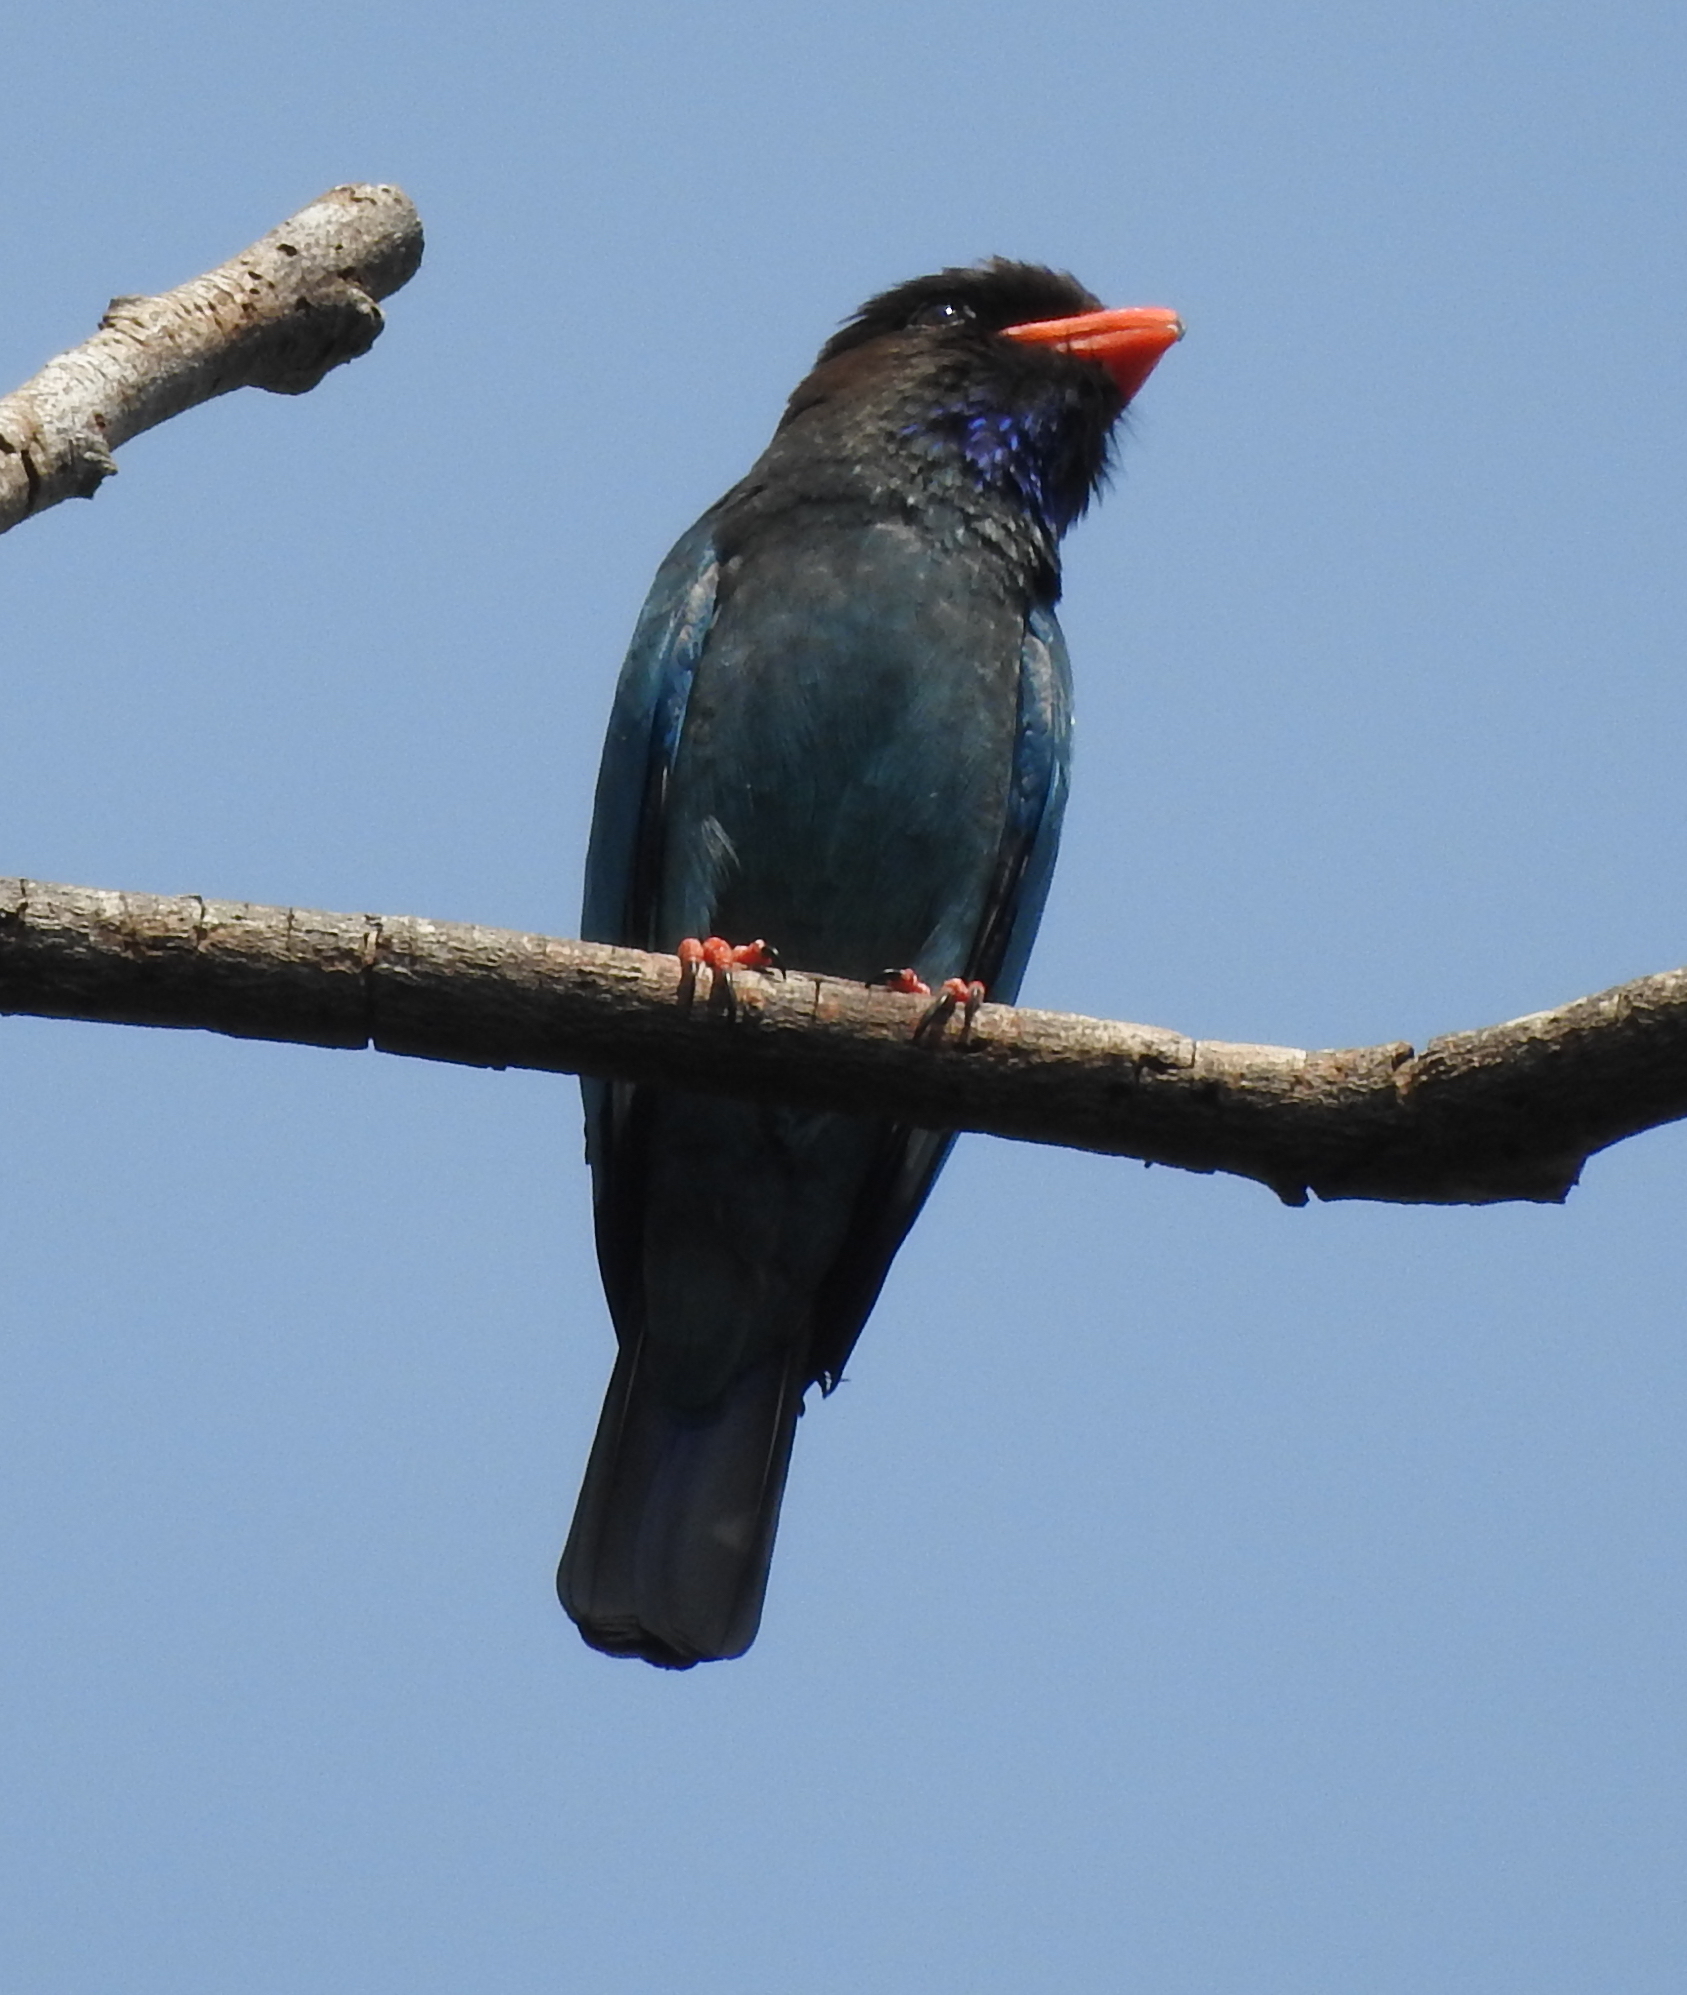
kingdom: Animalia
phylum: Chordata
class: Aves
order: Coraciiformes
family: Coraciidae
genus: Eurystomus
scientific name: Eurystomus orientalis
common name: Oriental dollarbird
